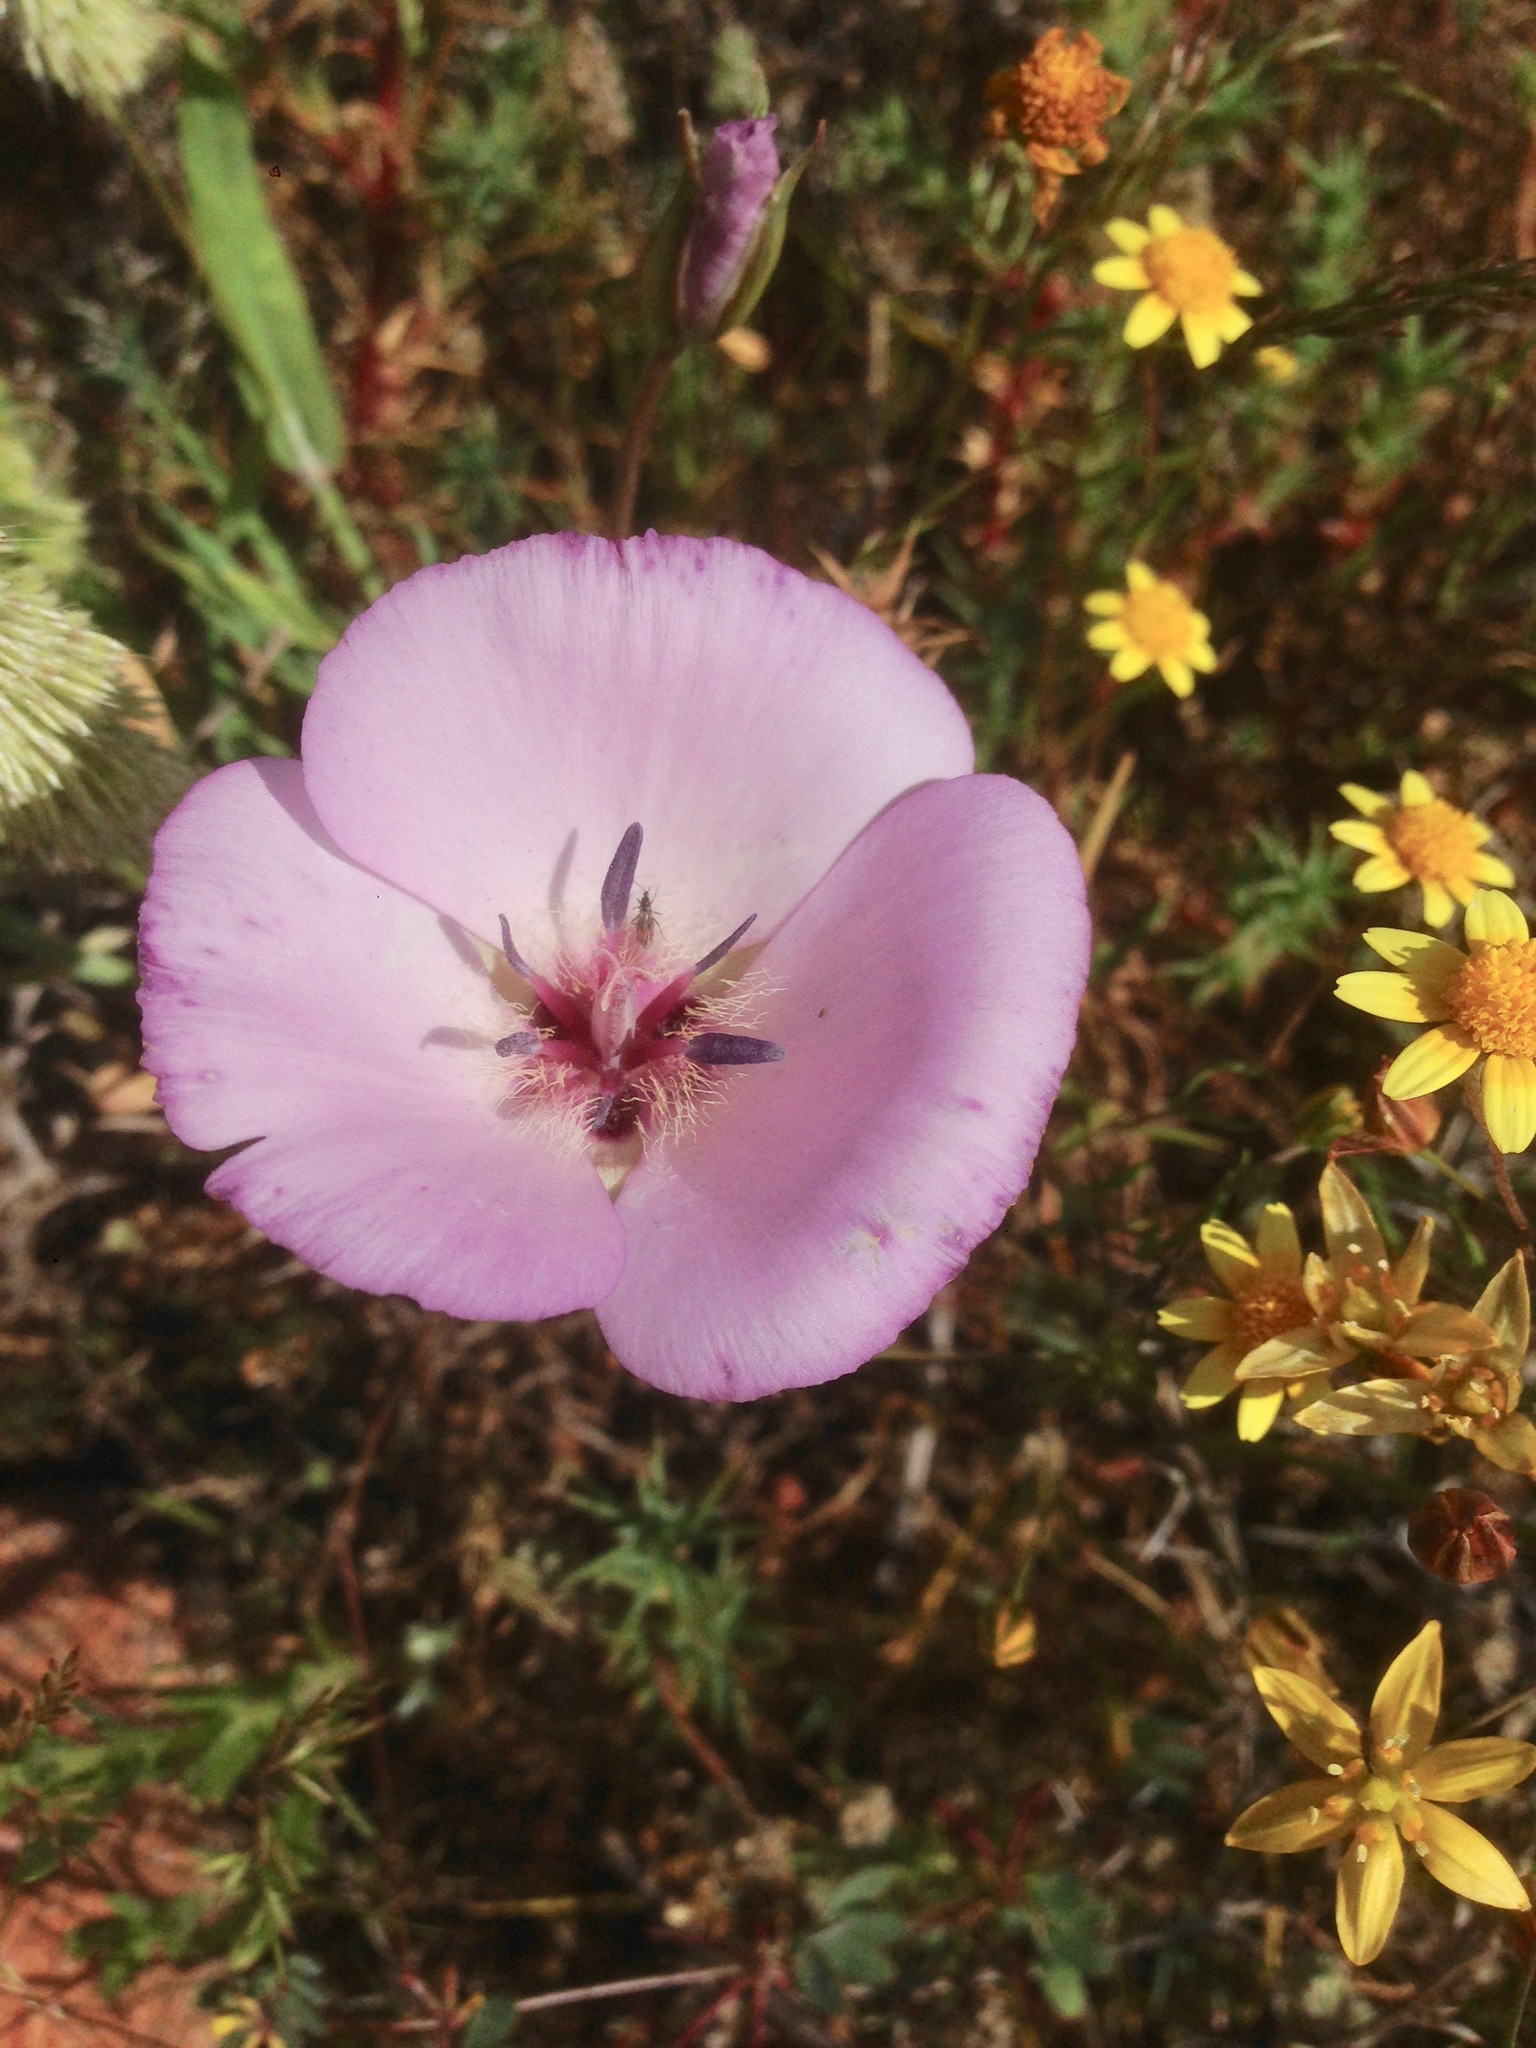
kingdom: Plantae
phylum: Tracheophyta
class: Liliopsida
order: Liliales
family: Liliaceae
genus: Calochortus
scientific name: Calochortus splendens
